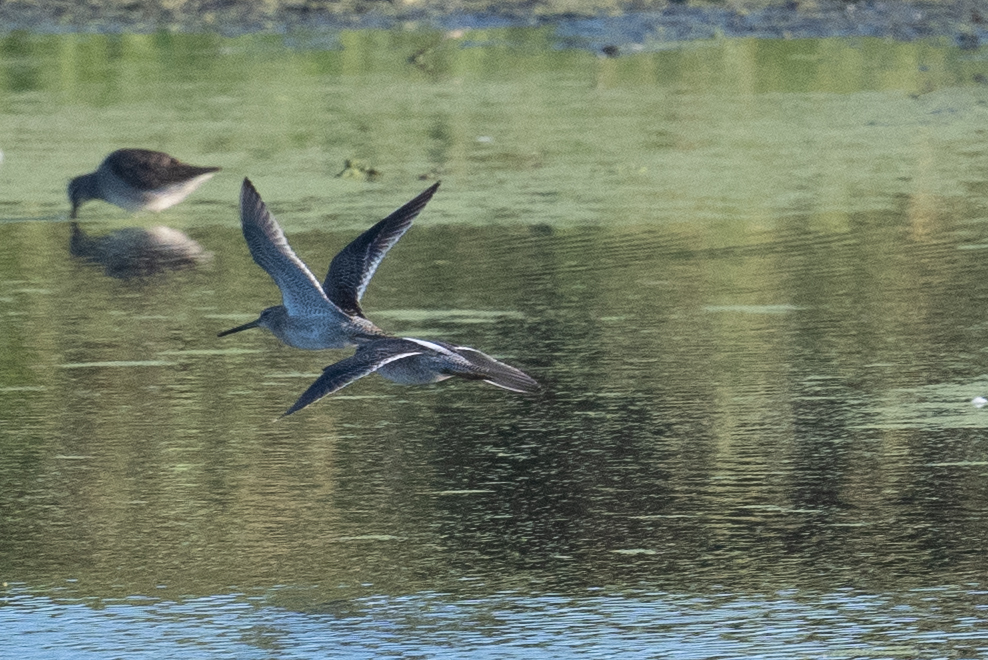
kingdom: Animalia
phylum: Chordata
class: Aves
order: Charadriiformes
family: Scolopacidae
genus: Limnodromus
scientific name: Limnodromus scolopaceus
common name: Long-billed dowitcher
